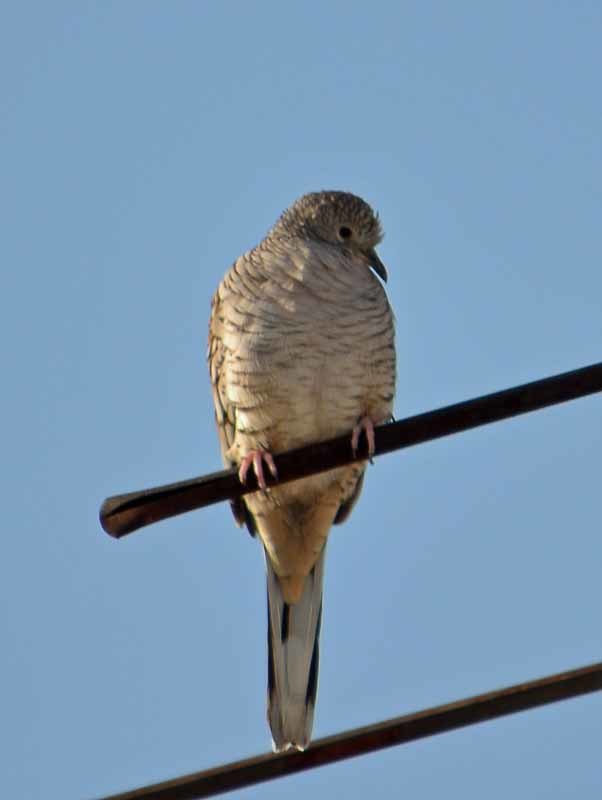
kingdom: Animalia
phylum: Chordata
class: Aves
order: Columbiformes
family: Columbidae
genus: Columbina
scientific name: Columbina inca
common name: Inca dove
